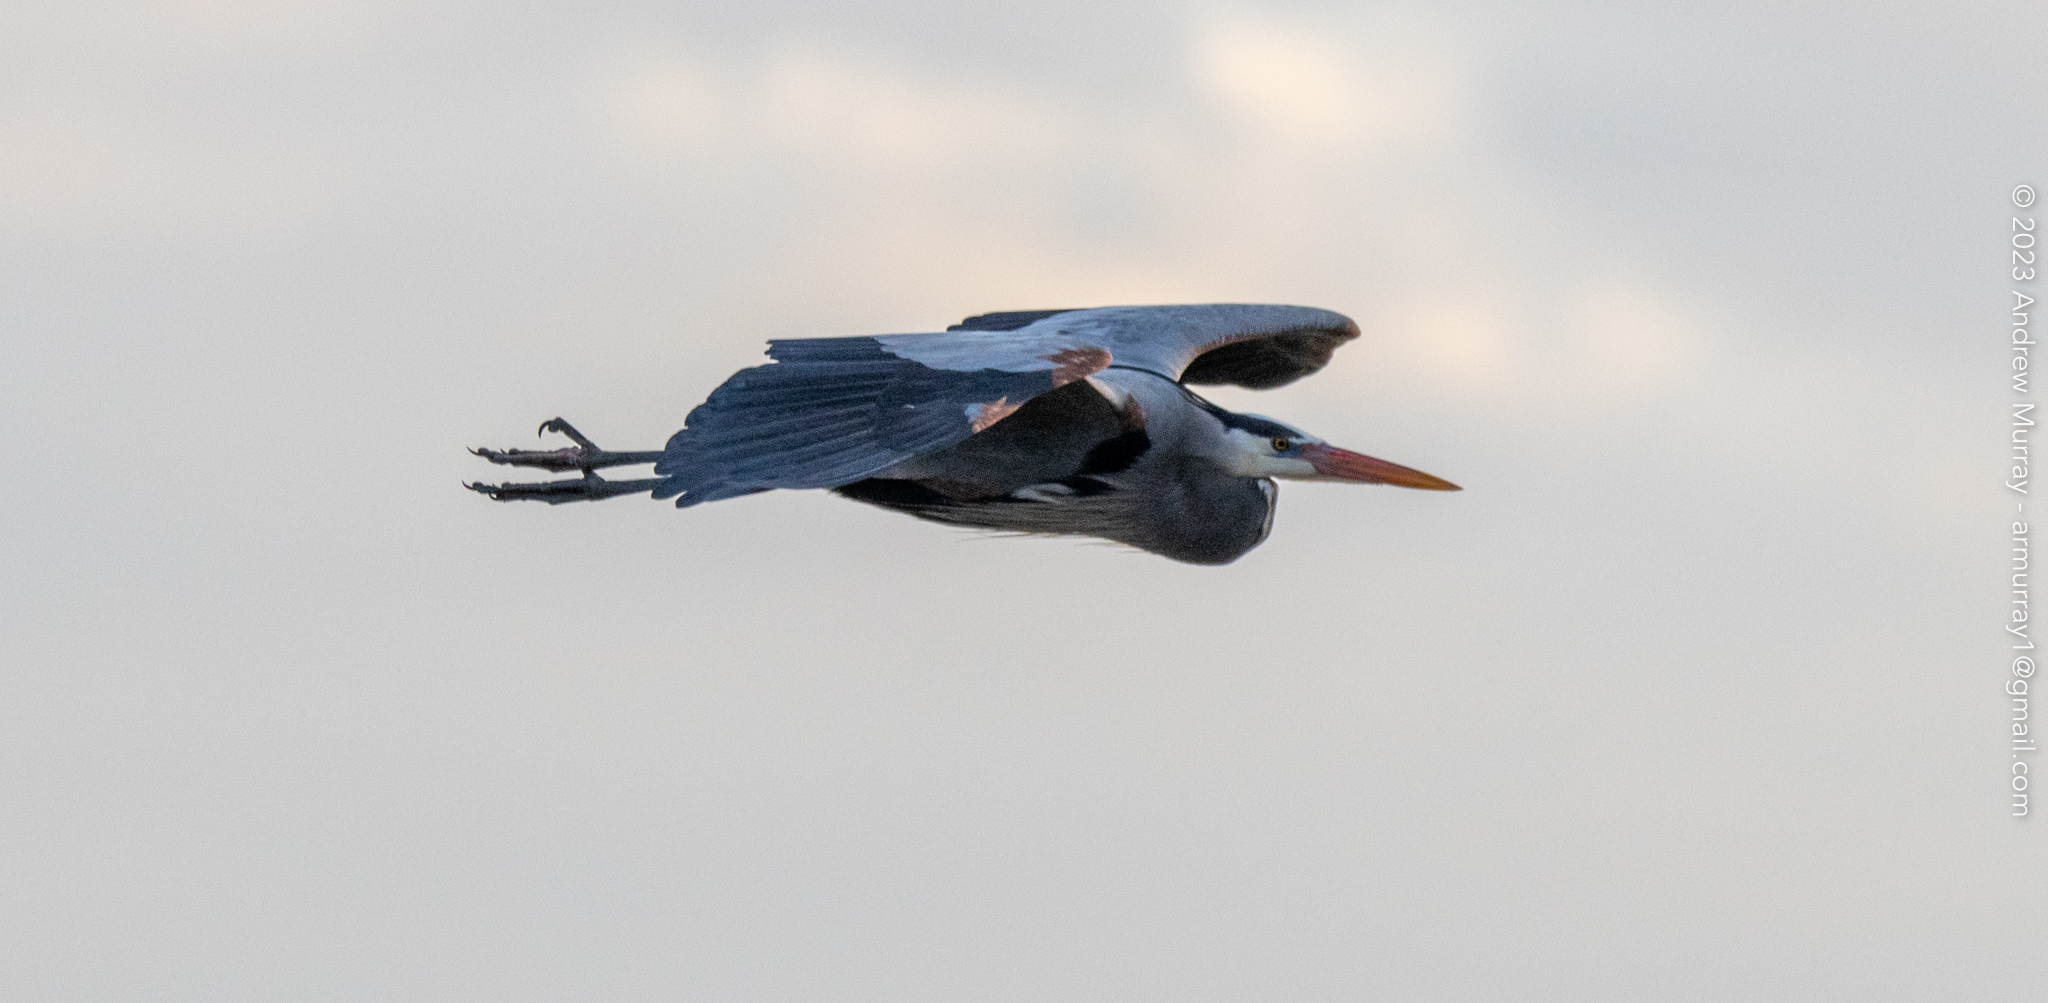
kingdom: Animalia
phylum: Chordata
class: Aves
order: Pelecaniformes
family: Ardeidae
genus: Ardea
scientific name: Ardea herodias
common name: Great blue heron
